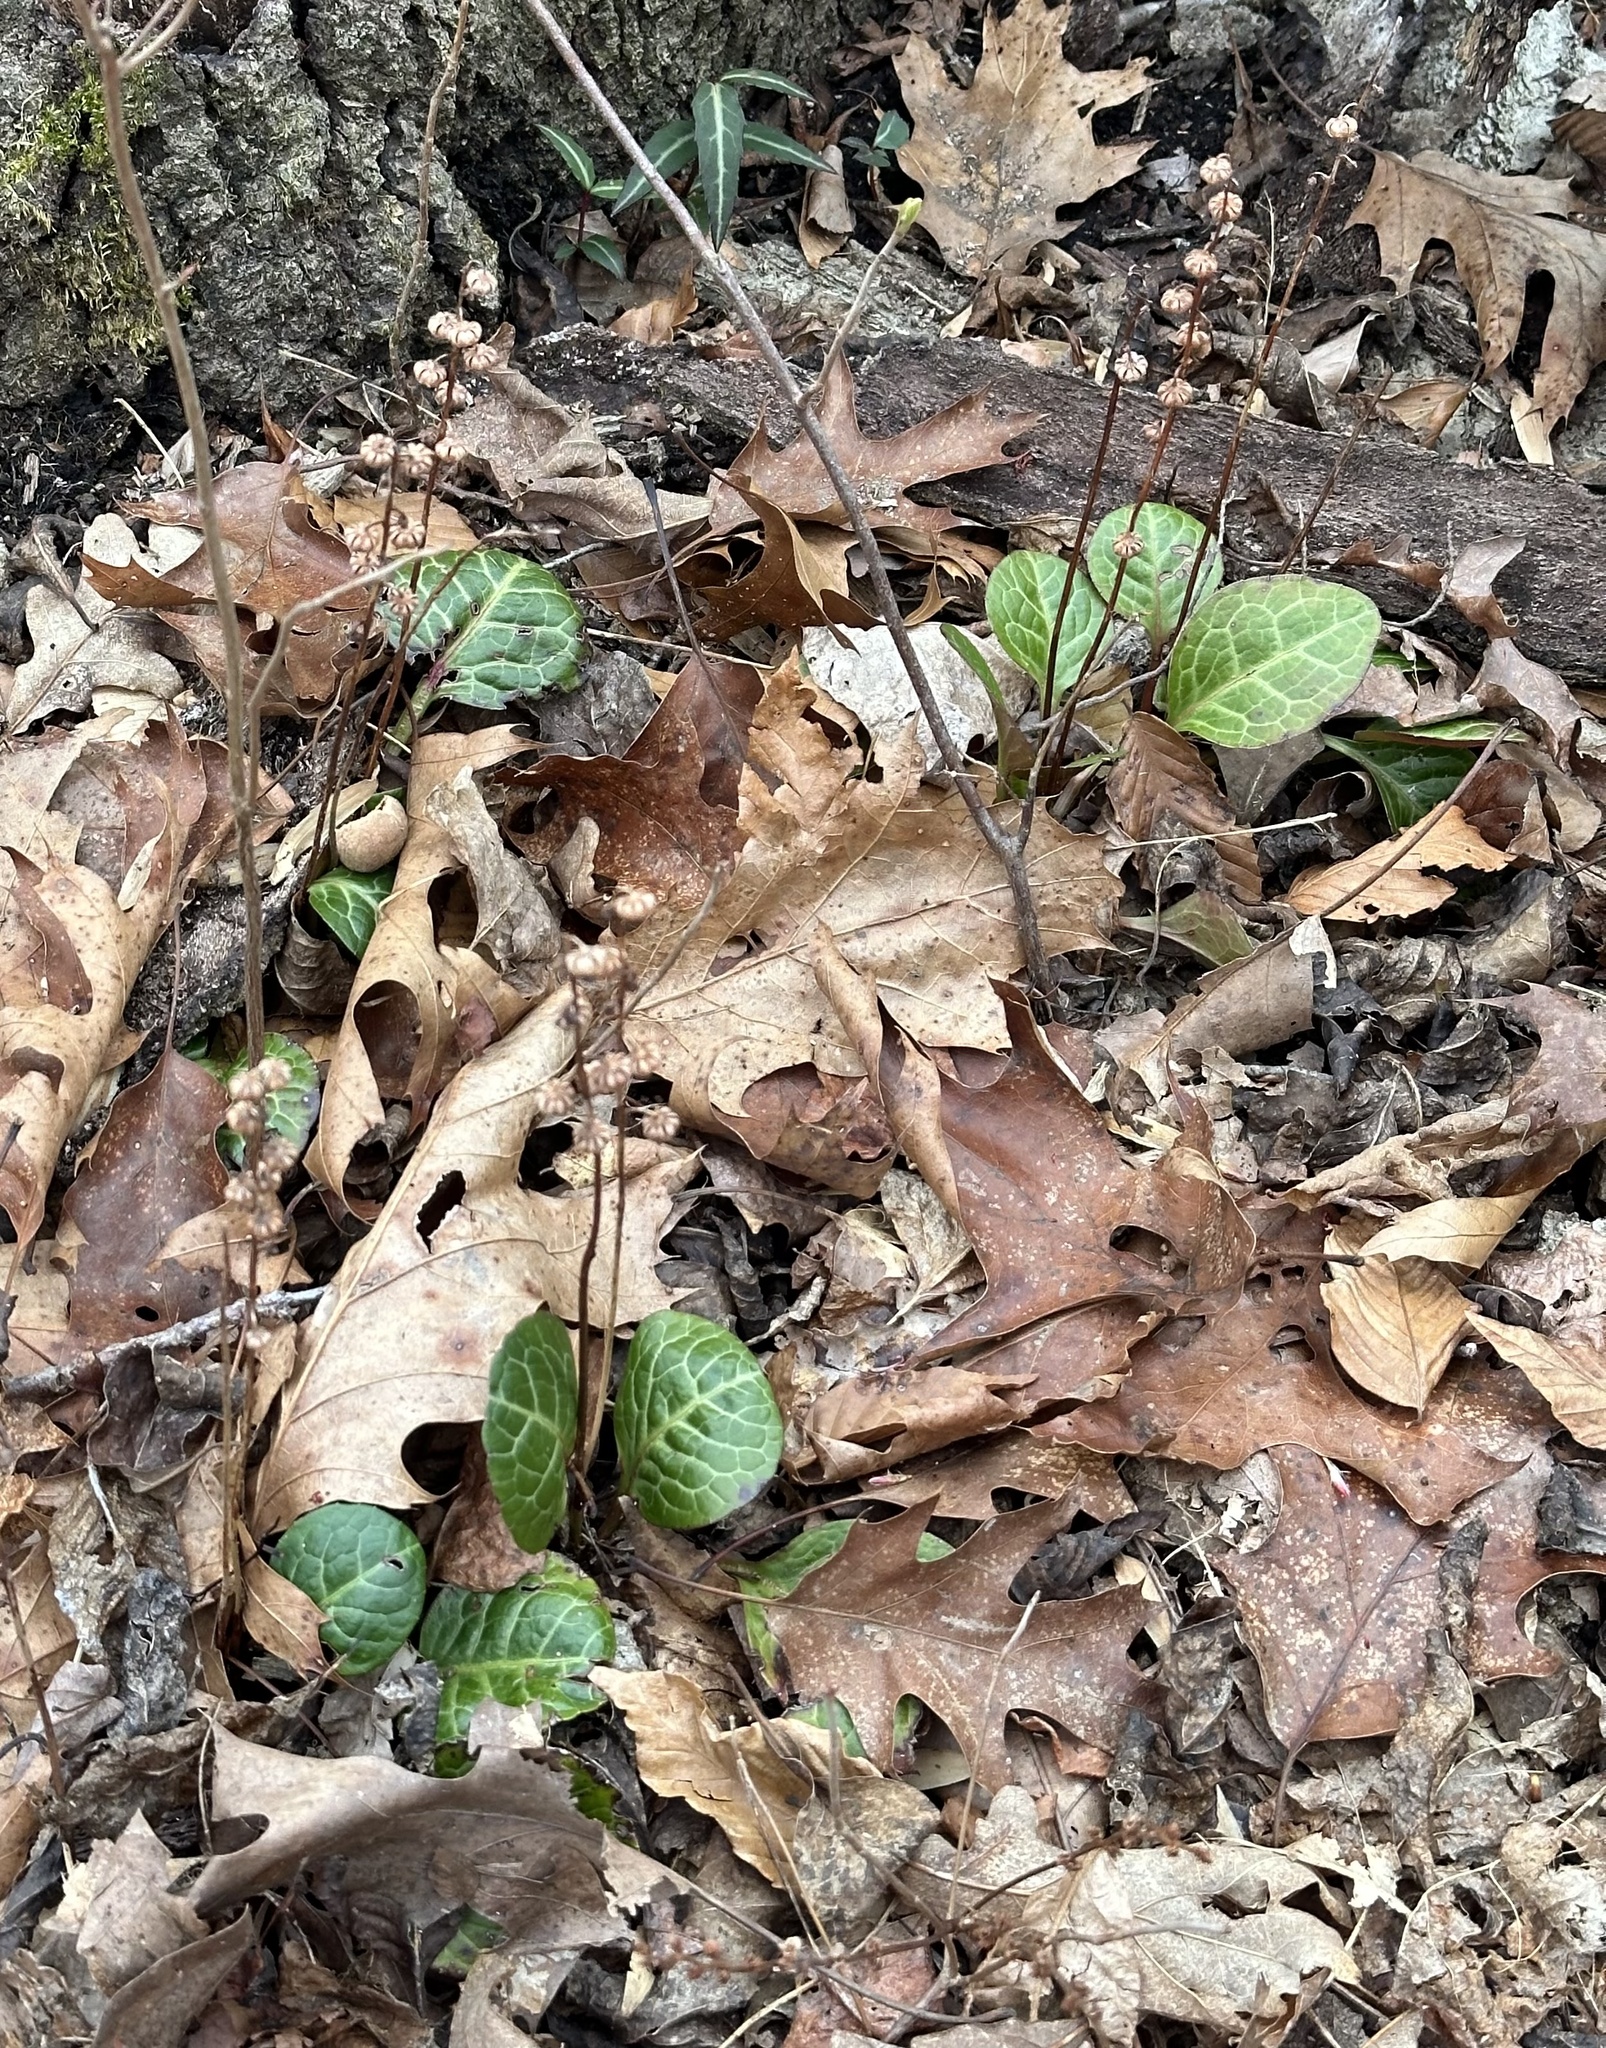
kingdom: Plantae
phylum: Tracheophyta
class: Magnoliopsida
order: Ericales
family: Ericaceae
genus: Pyrola
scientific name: Pyrola americana
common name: American wintergreen
